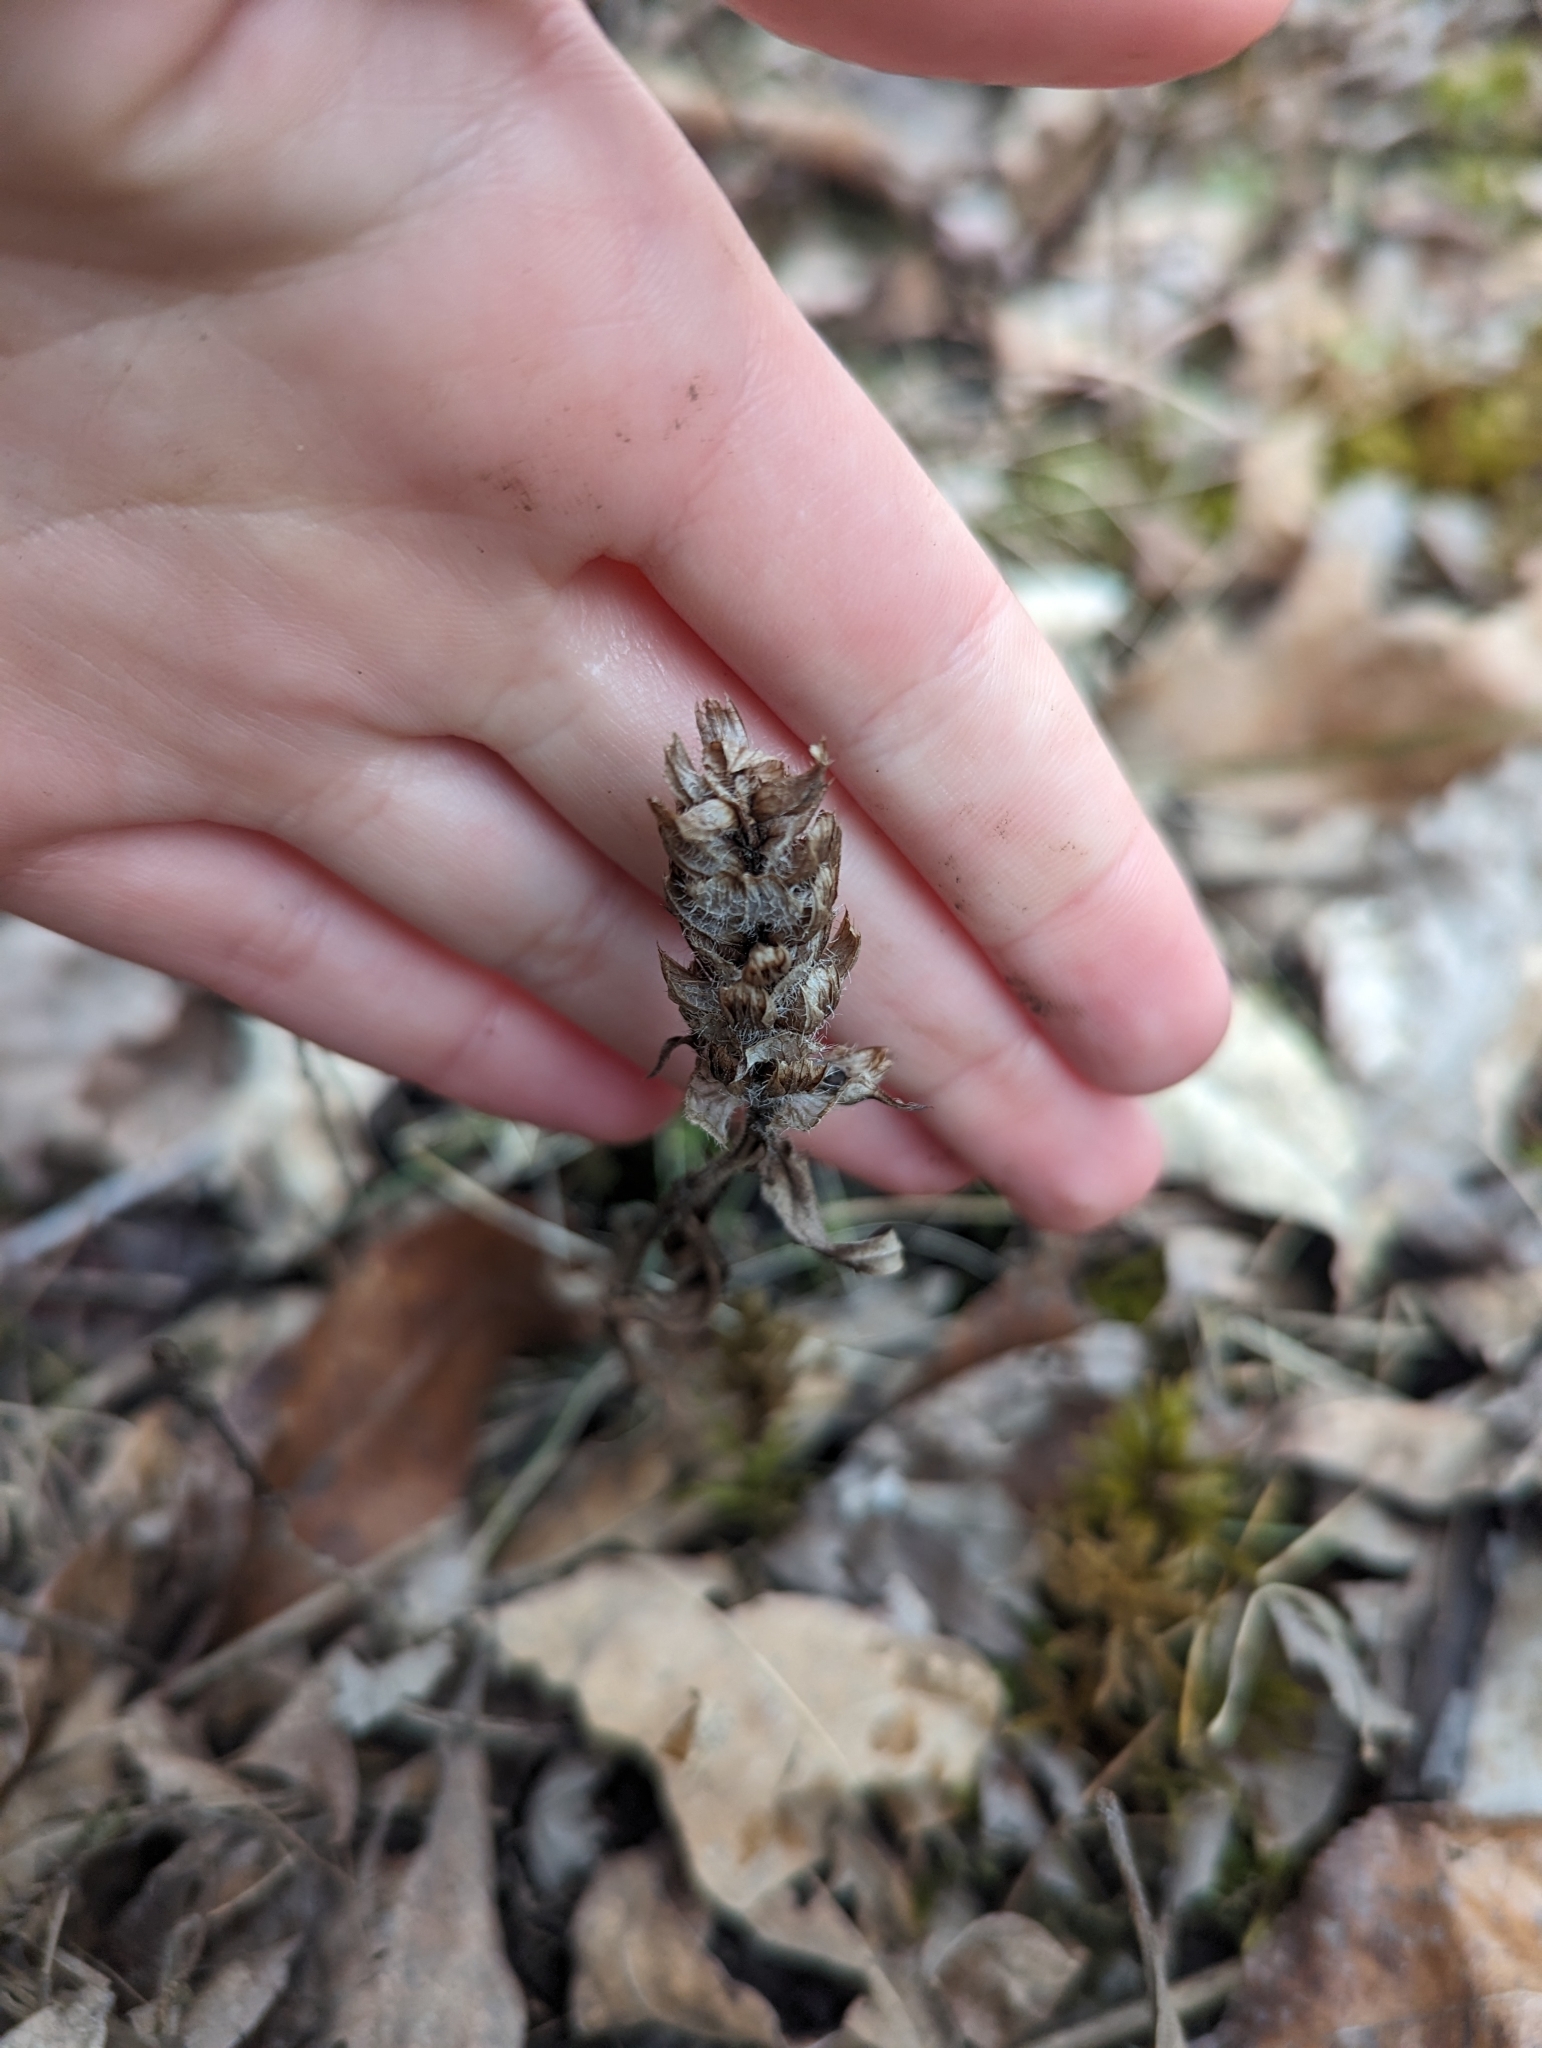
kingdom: Plantae
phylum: Tracheophyta
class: Magnoliopsida
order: Lamiales
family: Lamiaceae
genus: Prunella
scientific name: Prunella vulgaris
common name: Heal-all
